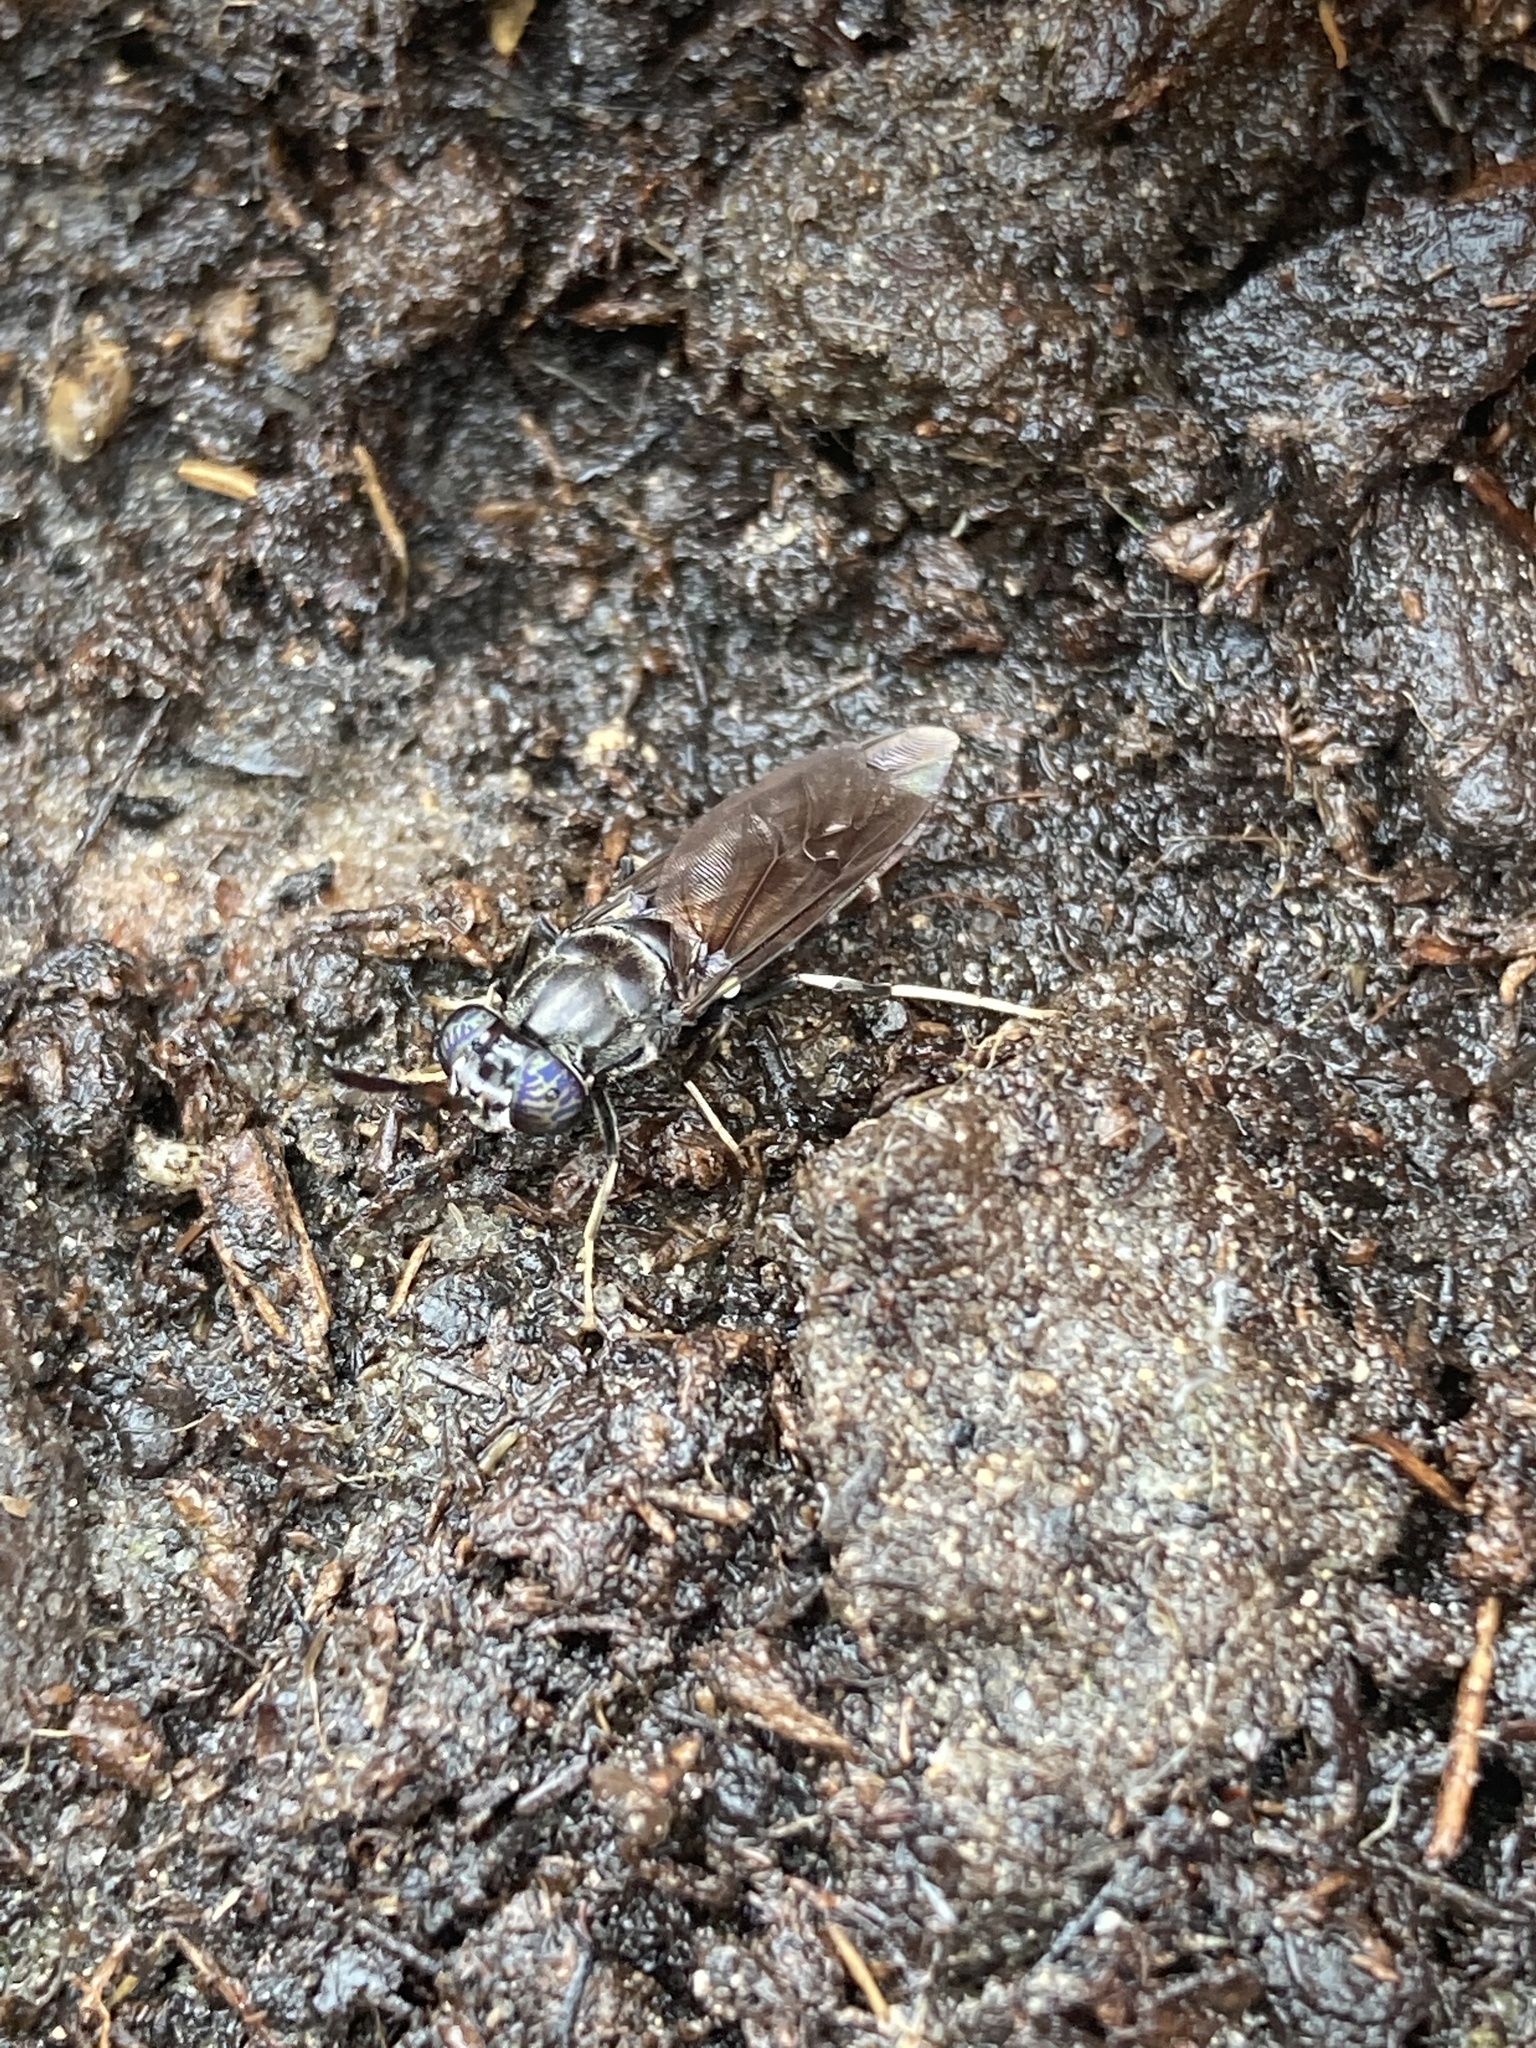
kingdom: Animalia
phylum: Arthropoda
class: Insecta
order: Diptera
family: Stratiomyidae
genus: Hermetia
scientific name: Hermetia illucens
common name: Black soldier fly
